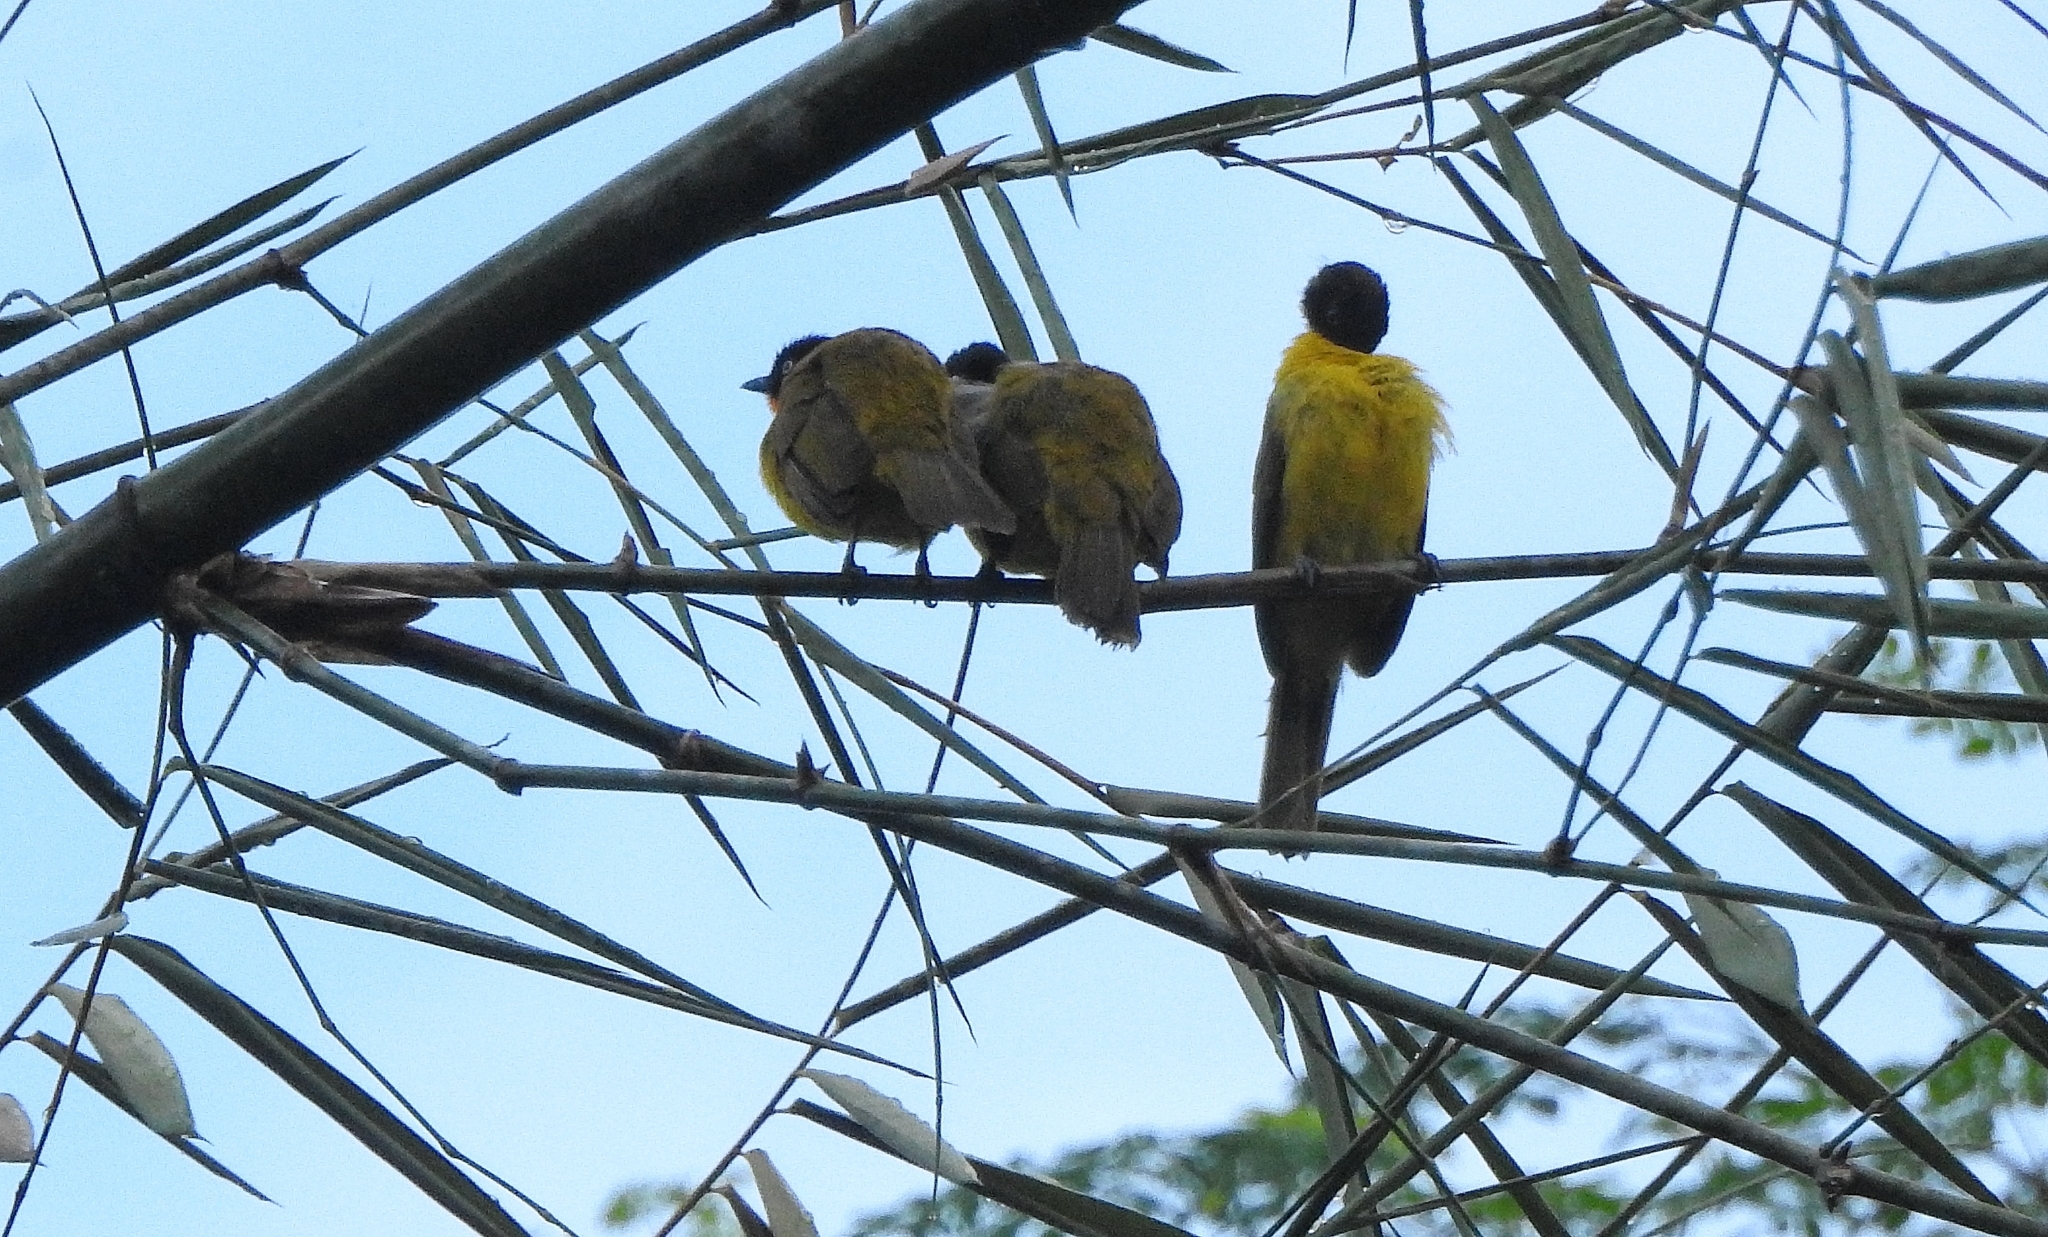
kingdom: Animalia
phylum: Chordata
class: Aves
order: Passeriformes
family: Pycnonotidae
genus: Pycnonotus
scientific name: Pycnonotus gularis
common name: Flame-throated bulbul
